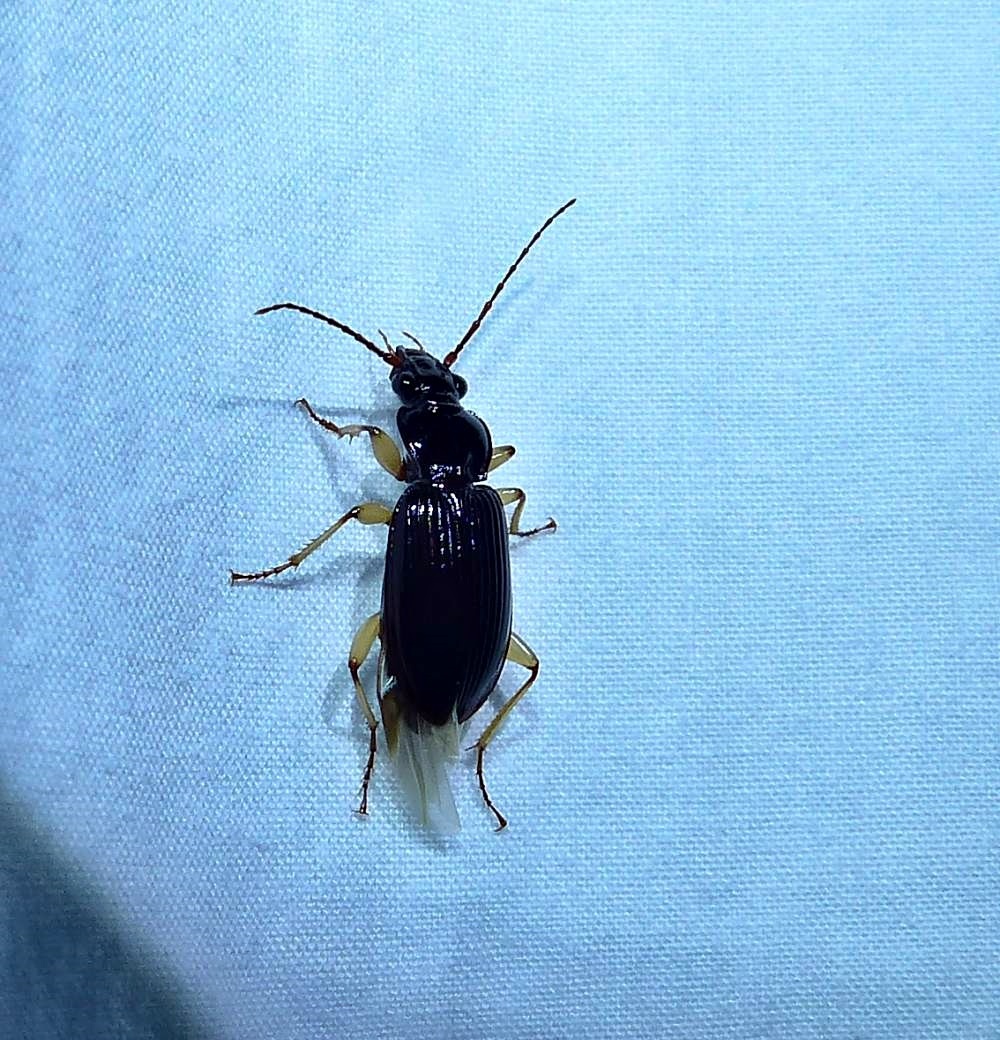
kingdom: Animalia
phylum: Arthropoda
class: Insecta
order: Coleoptera
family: Carabidae
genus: Patrobus
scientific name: Patrobus longicornis
